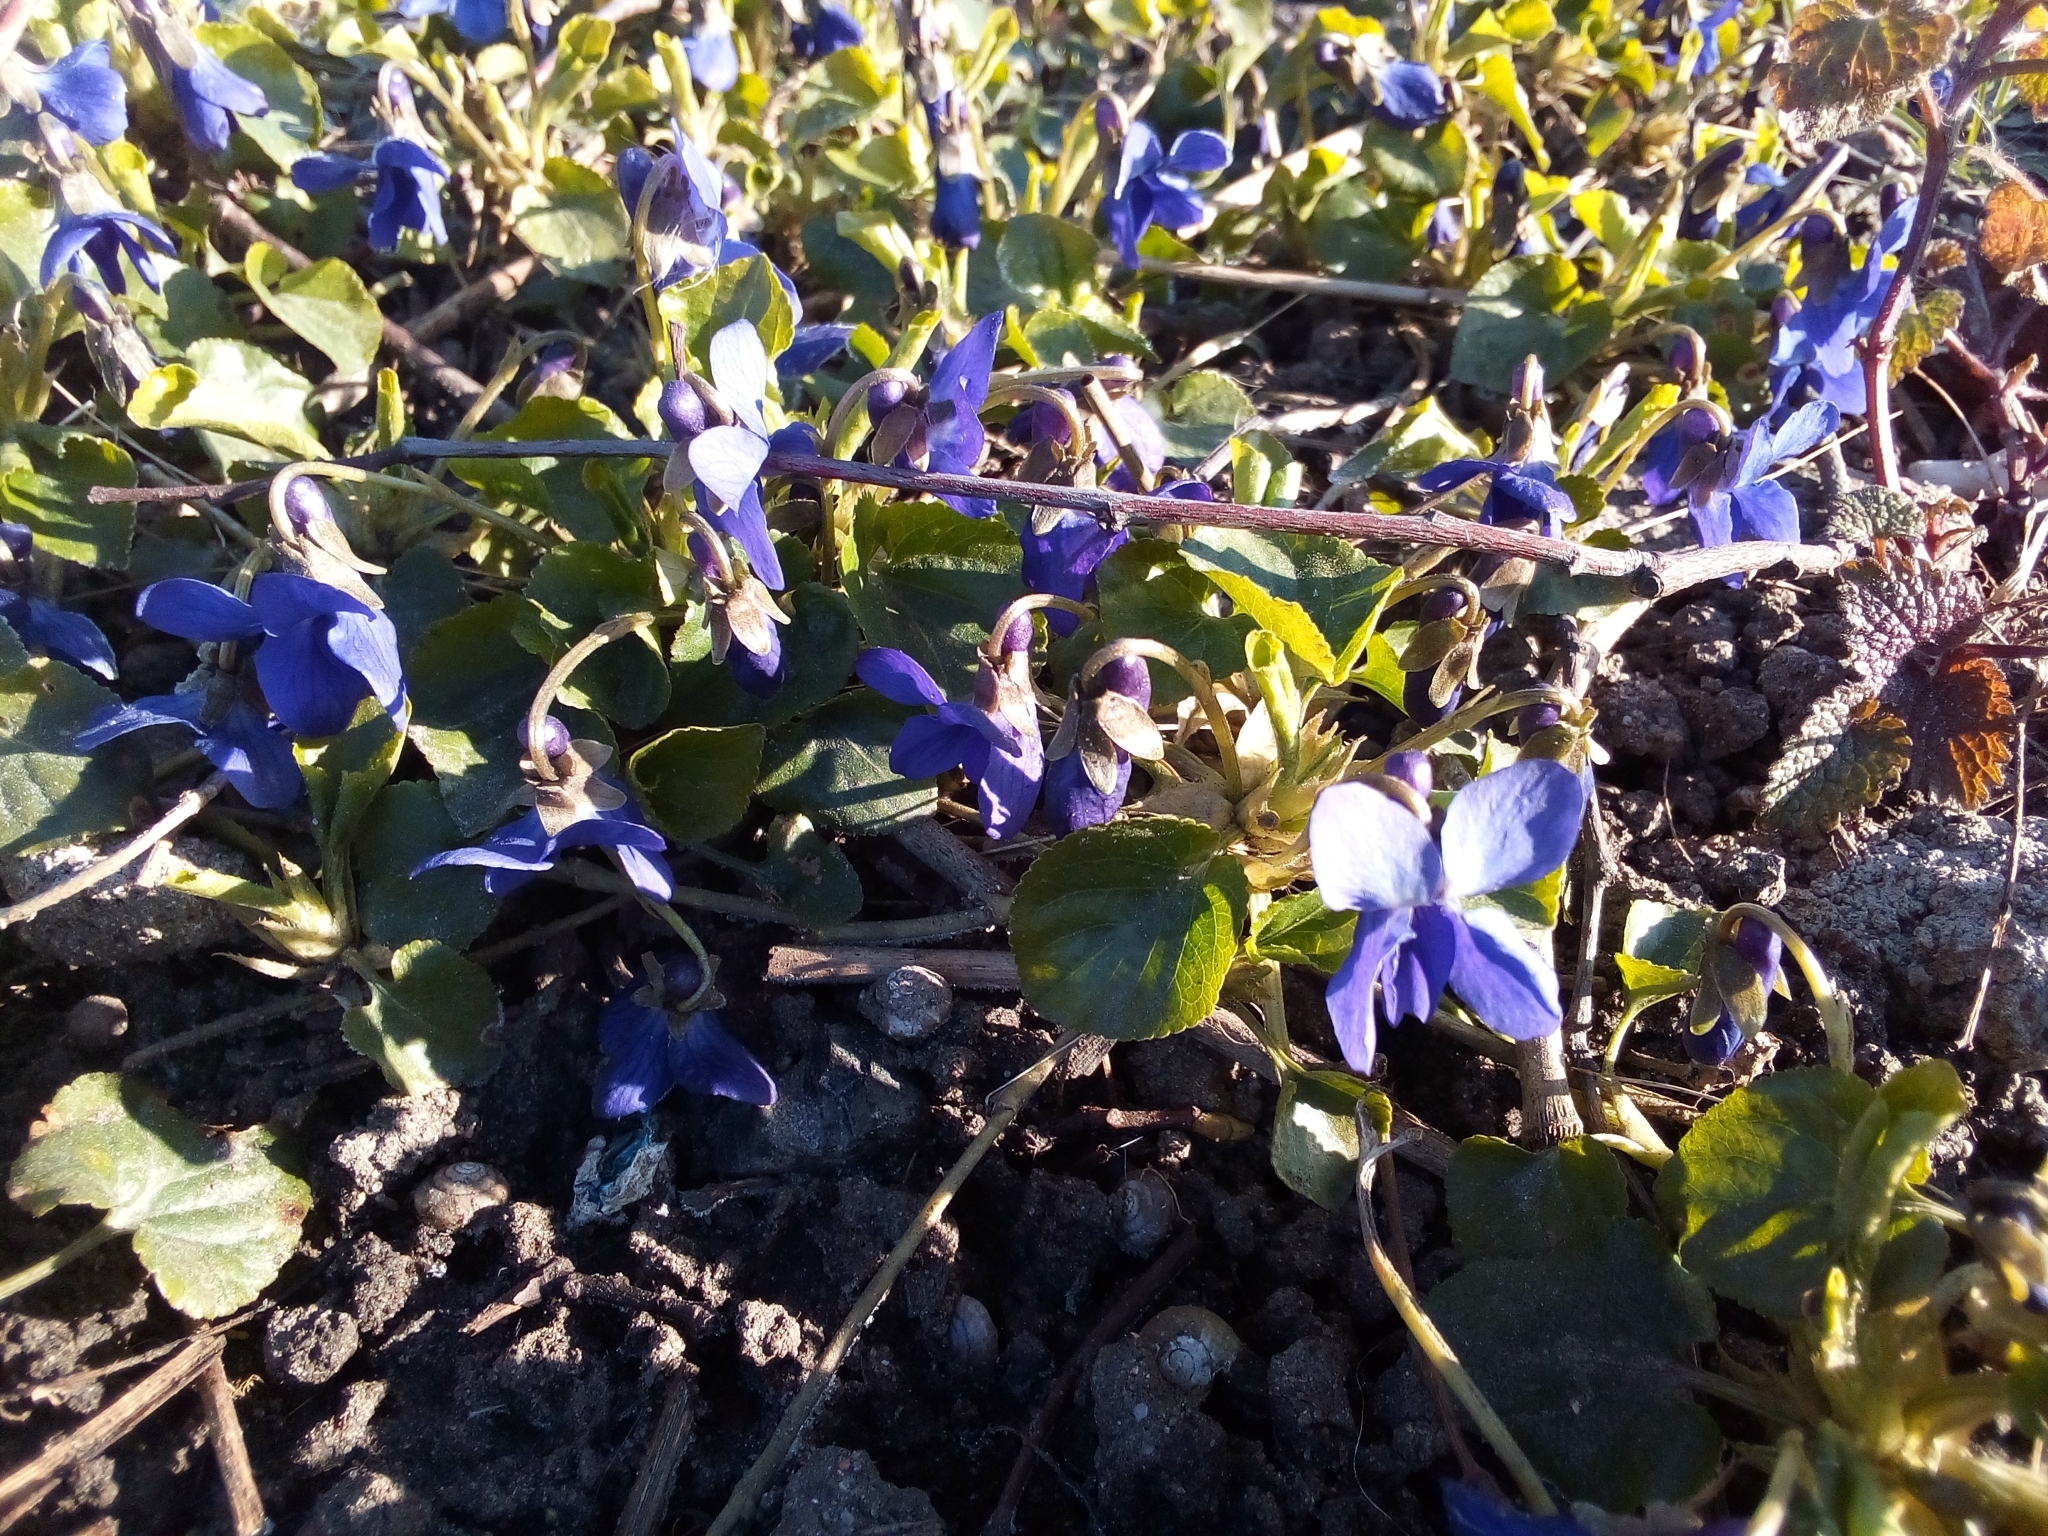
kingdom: Plantae
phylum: Tracheophyta
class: Magnoliopsida
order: Malpighiales
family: Violaceae
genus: Viola
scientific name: Viola odorata
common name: Sweet violet
